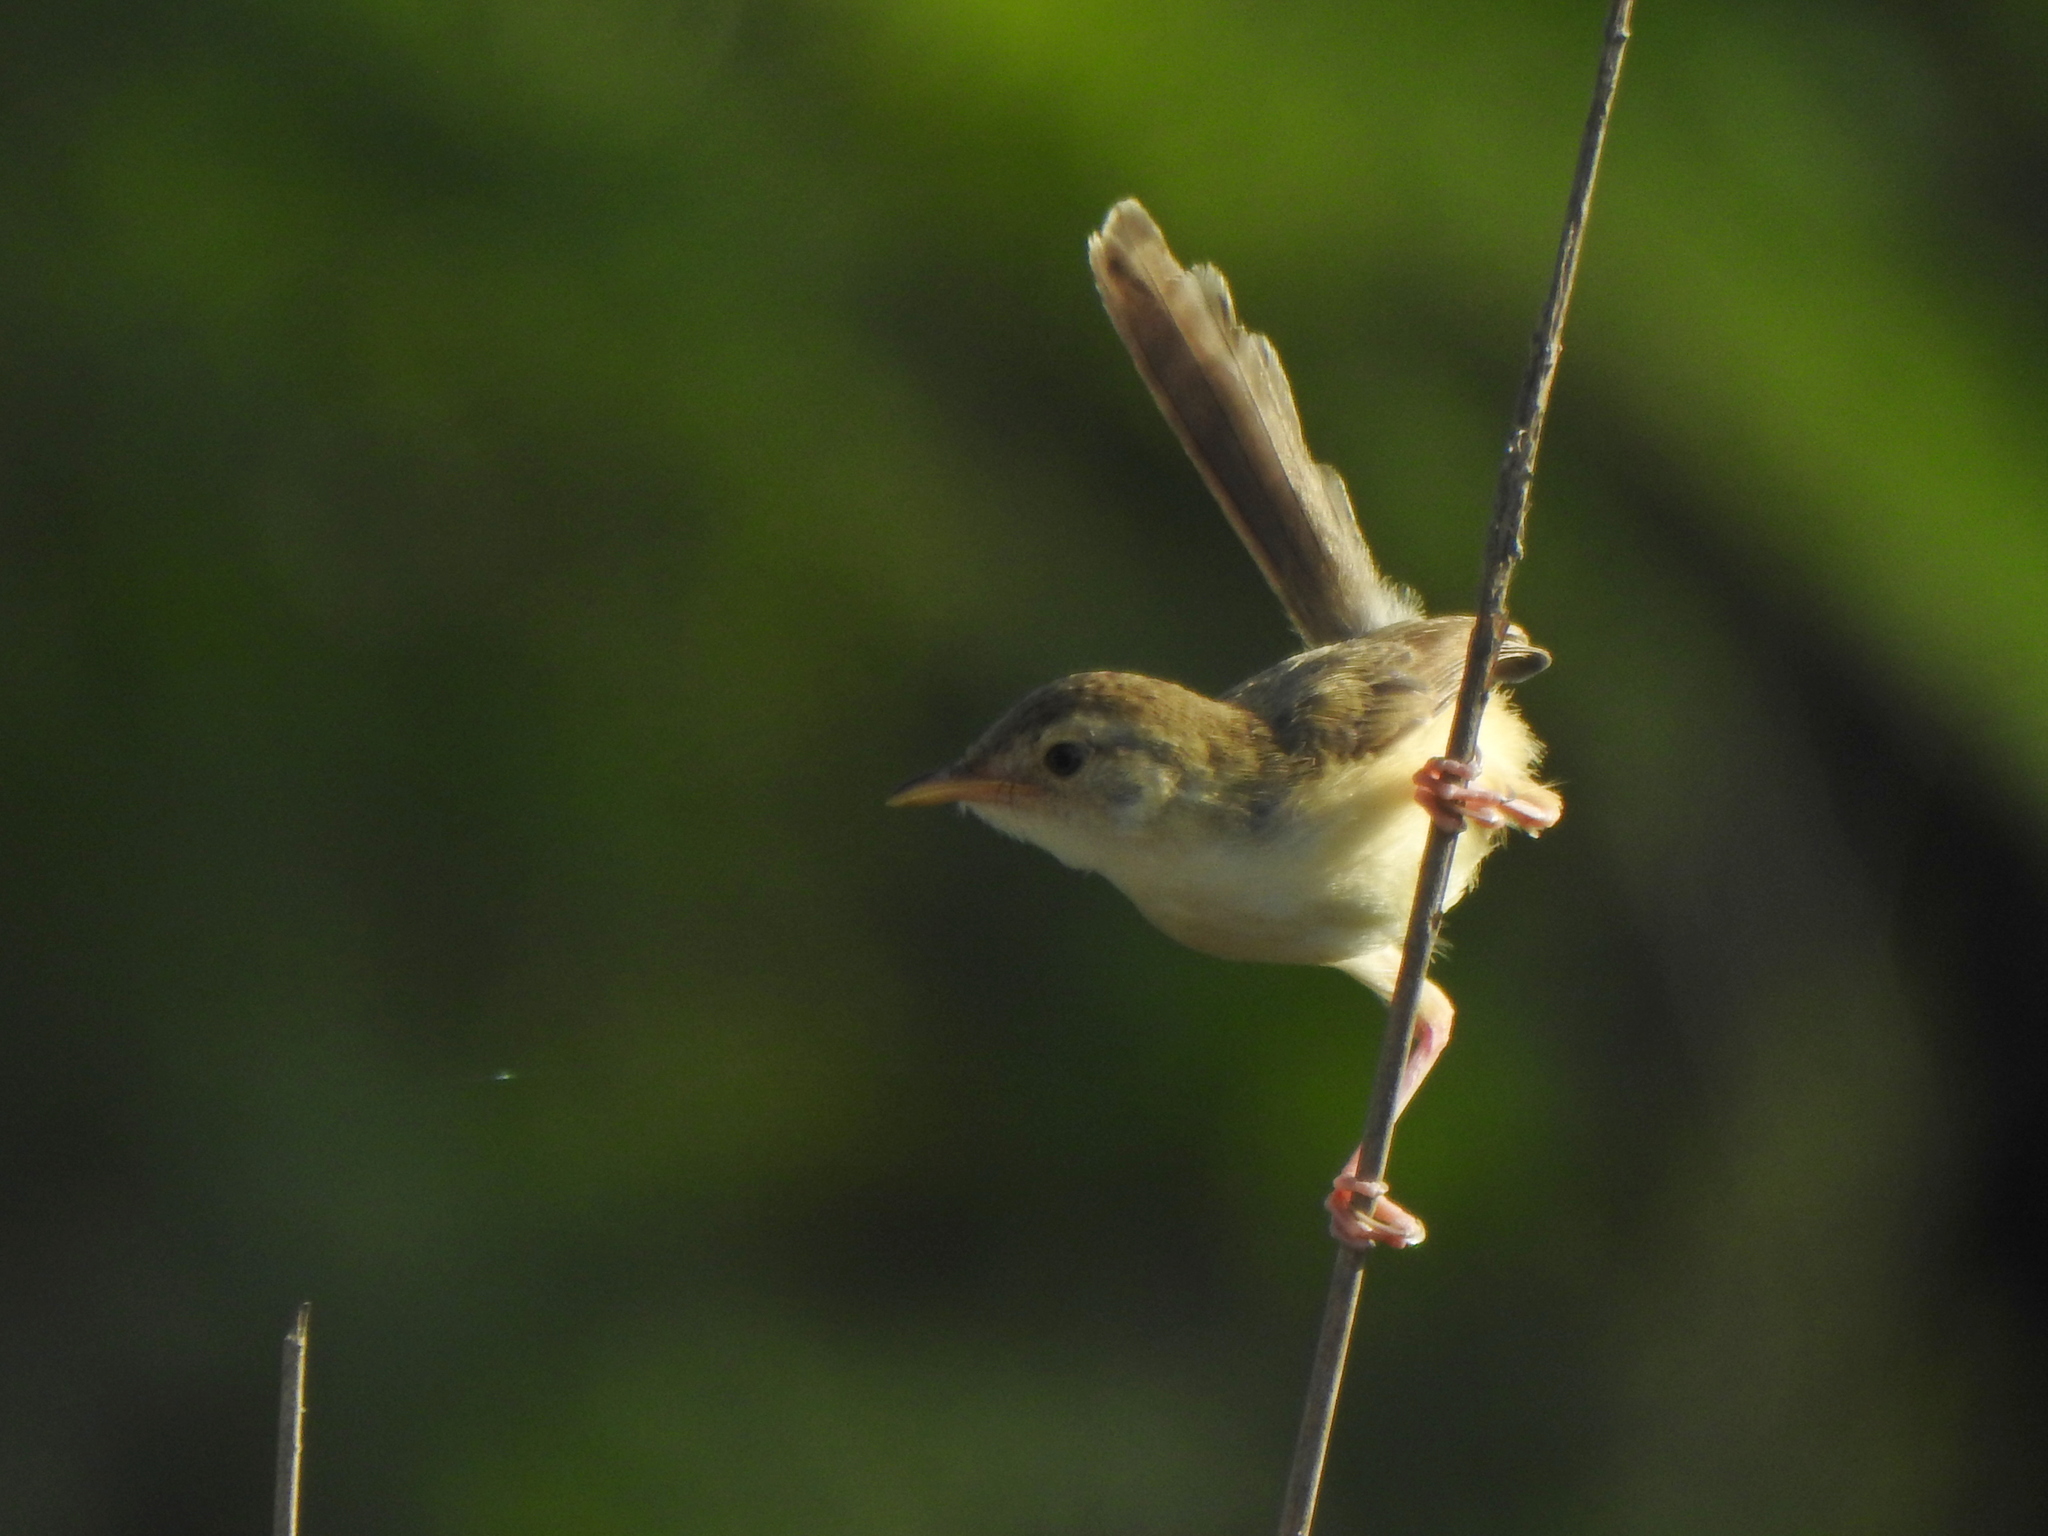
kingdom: Animalia
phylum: Chordata
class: Aves
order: Passeriformes
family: Cisticolidae
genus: Prinia
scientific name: Prinia inornata
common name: Plain prinia
